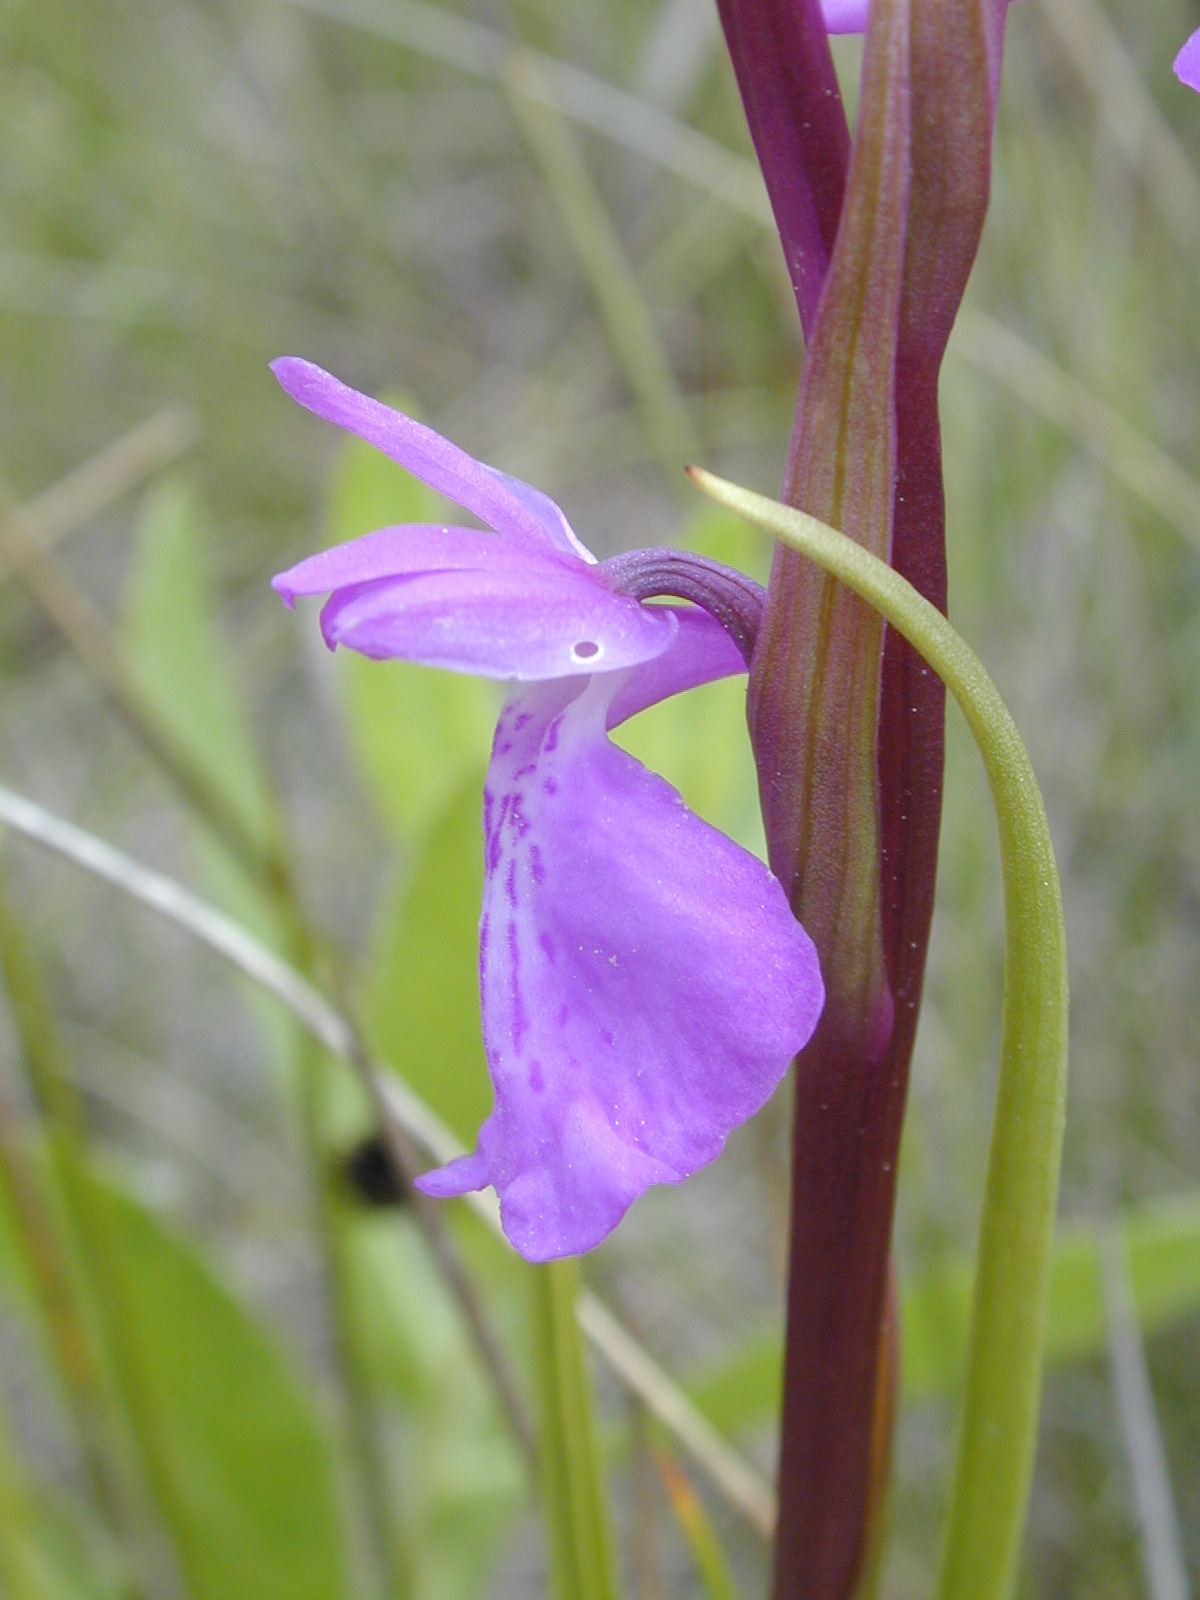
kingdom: Plantae
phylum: Tracheophyta
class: Liliopsida
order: Asparagales
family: Orchidaceae
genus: Anacamptis
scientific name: Anacamptis palustris
